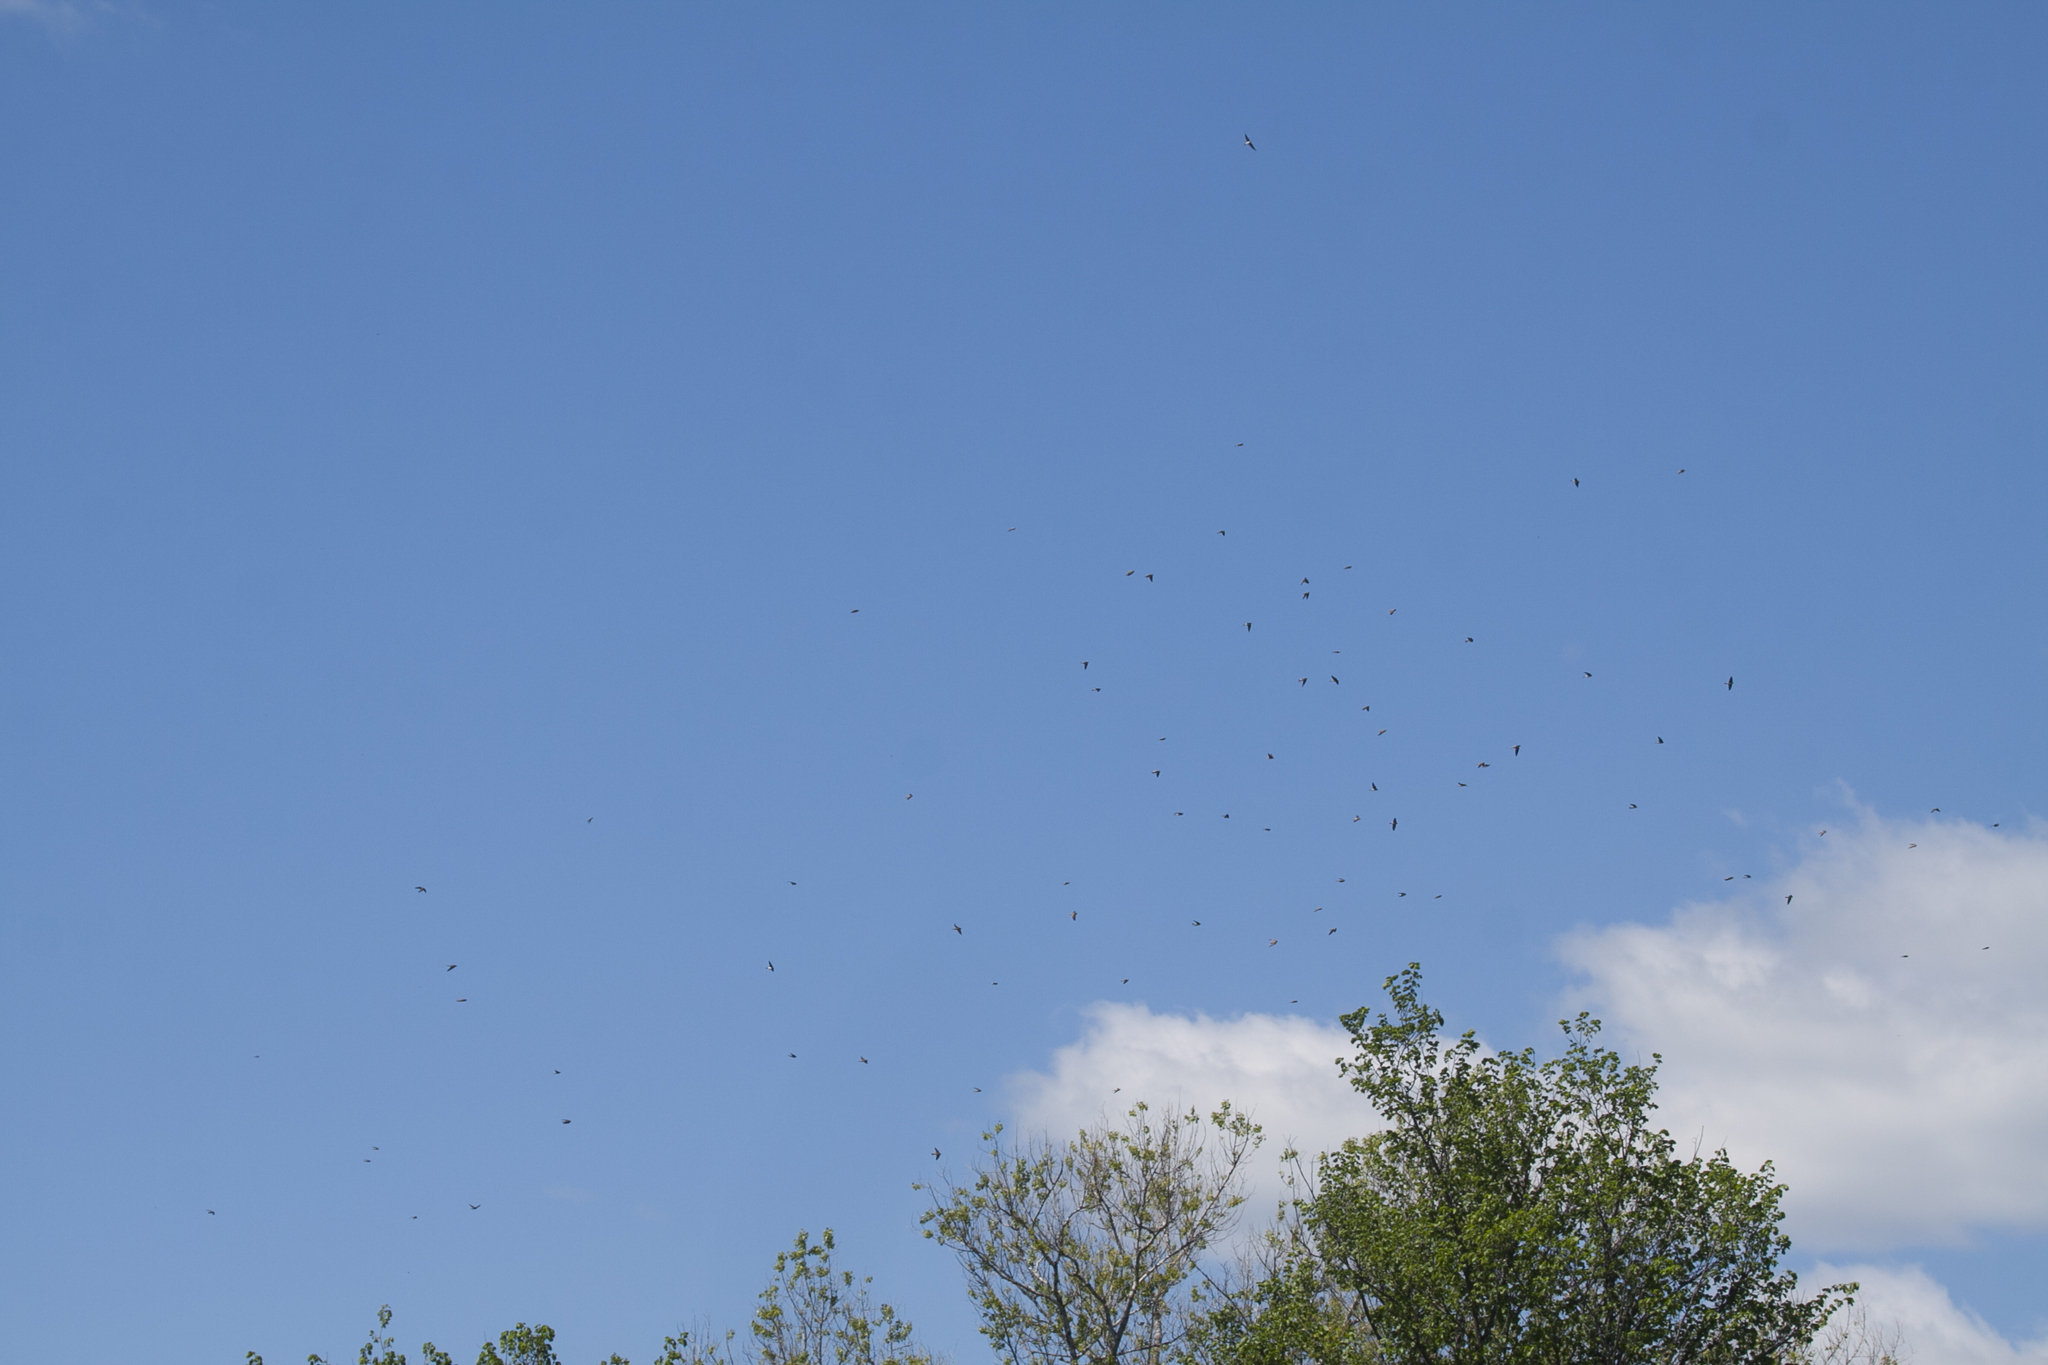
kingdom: Animalia
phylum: Chordata
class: Aves
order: Passeriformes
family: Hirundinidae
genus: Riparia
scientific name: Riparia riparia
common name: Sand martin
